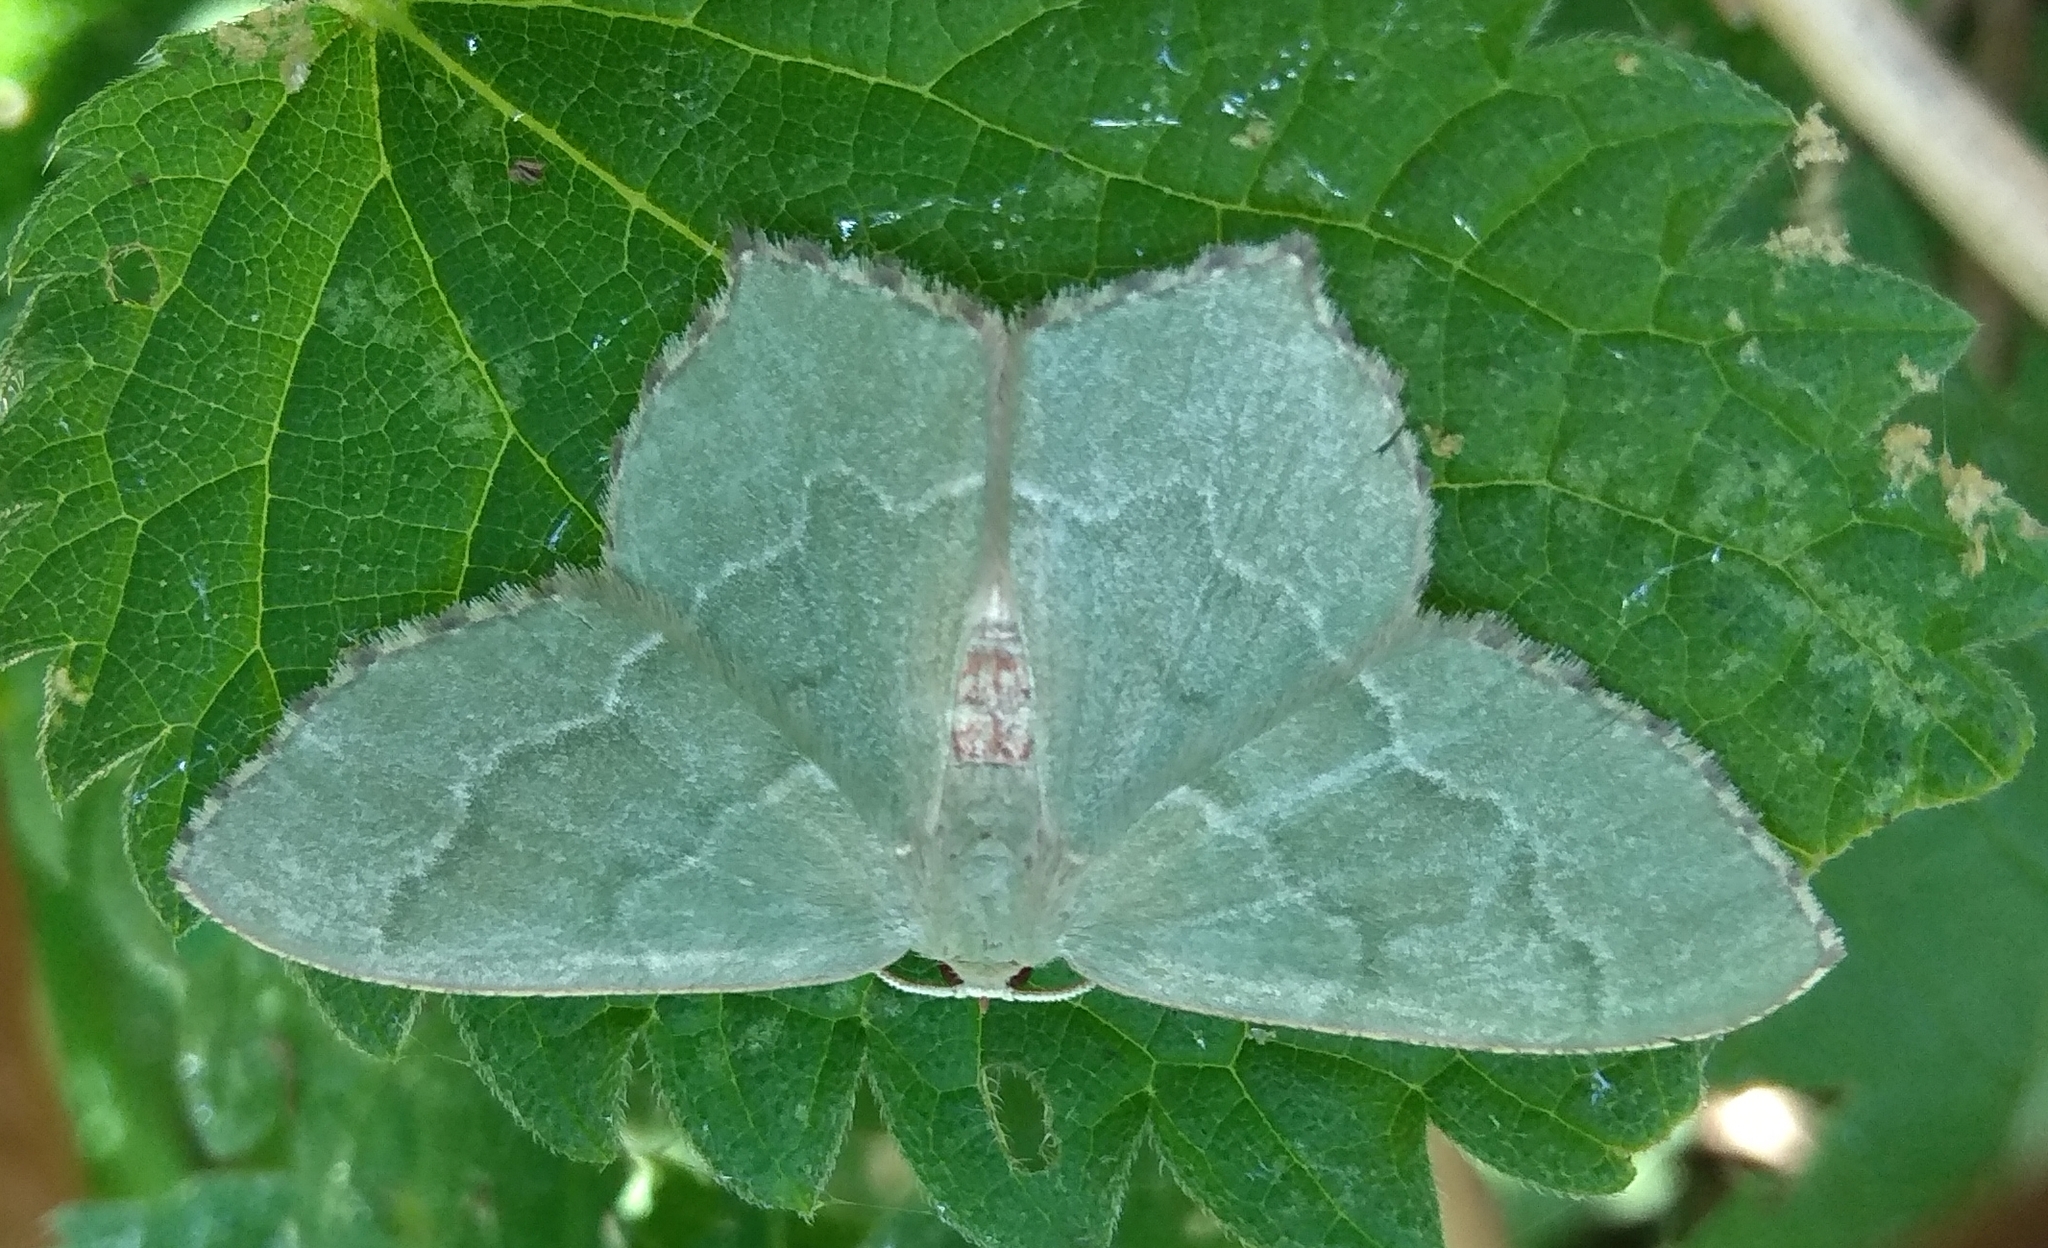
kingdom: Animalia
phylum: Arthropoda
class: Insecta
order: Lepidoptera
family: Geometridae
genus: Hemithea
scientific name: Hemithea aestivaria
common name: Common emerald
